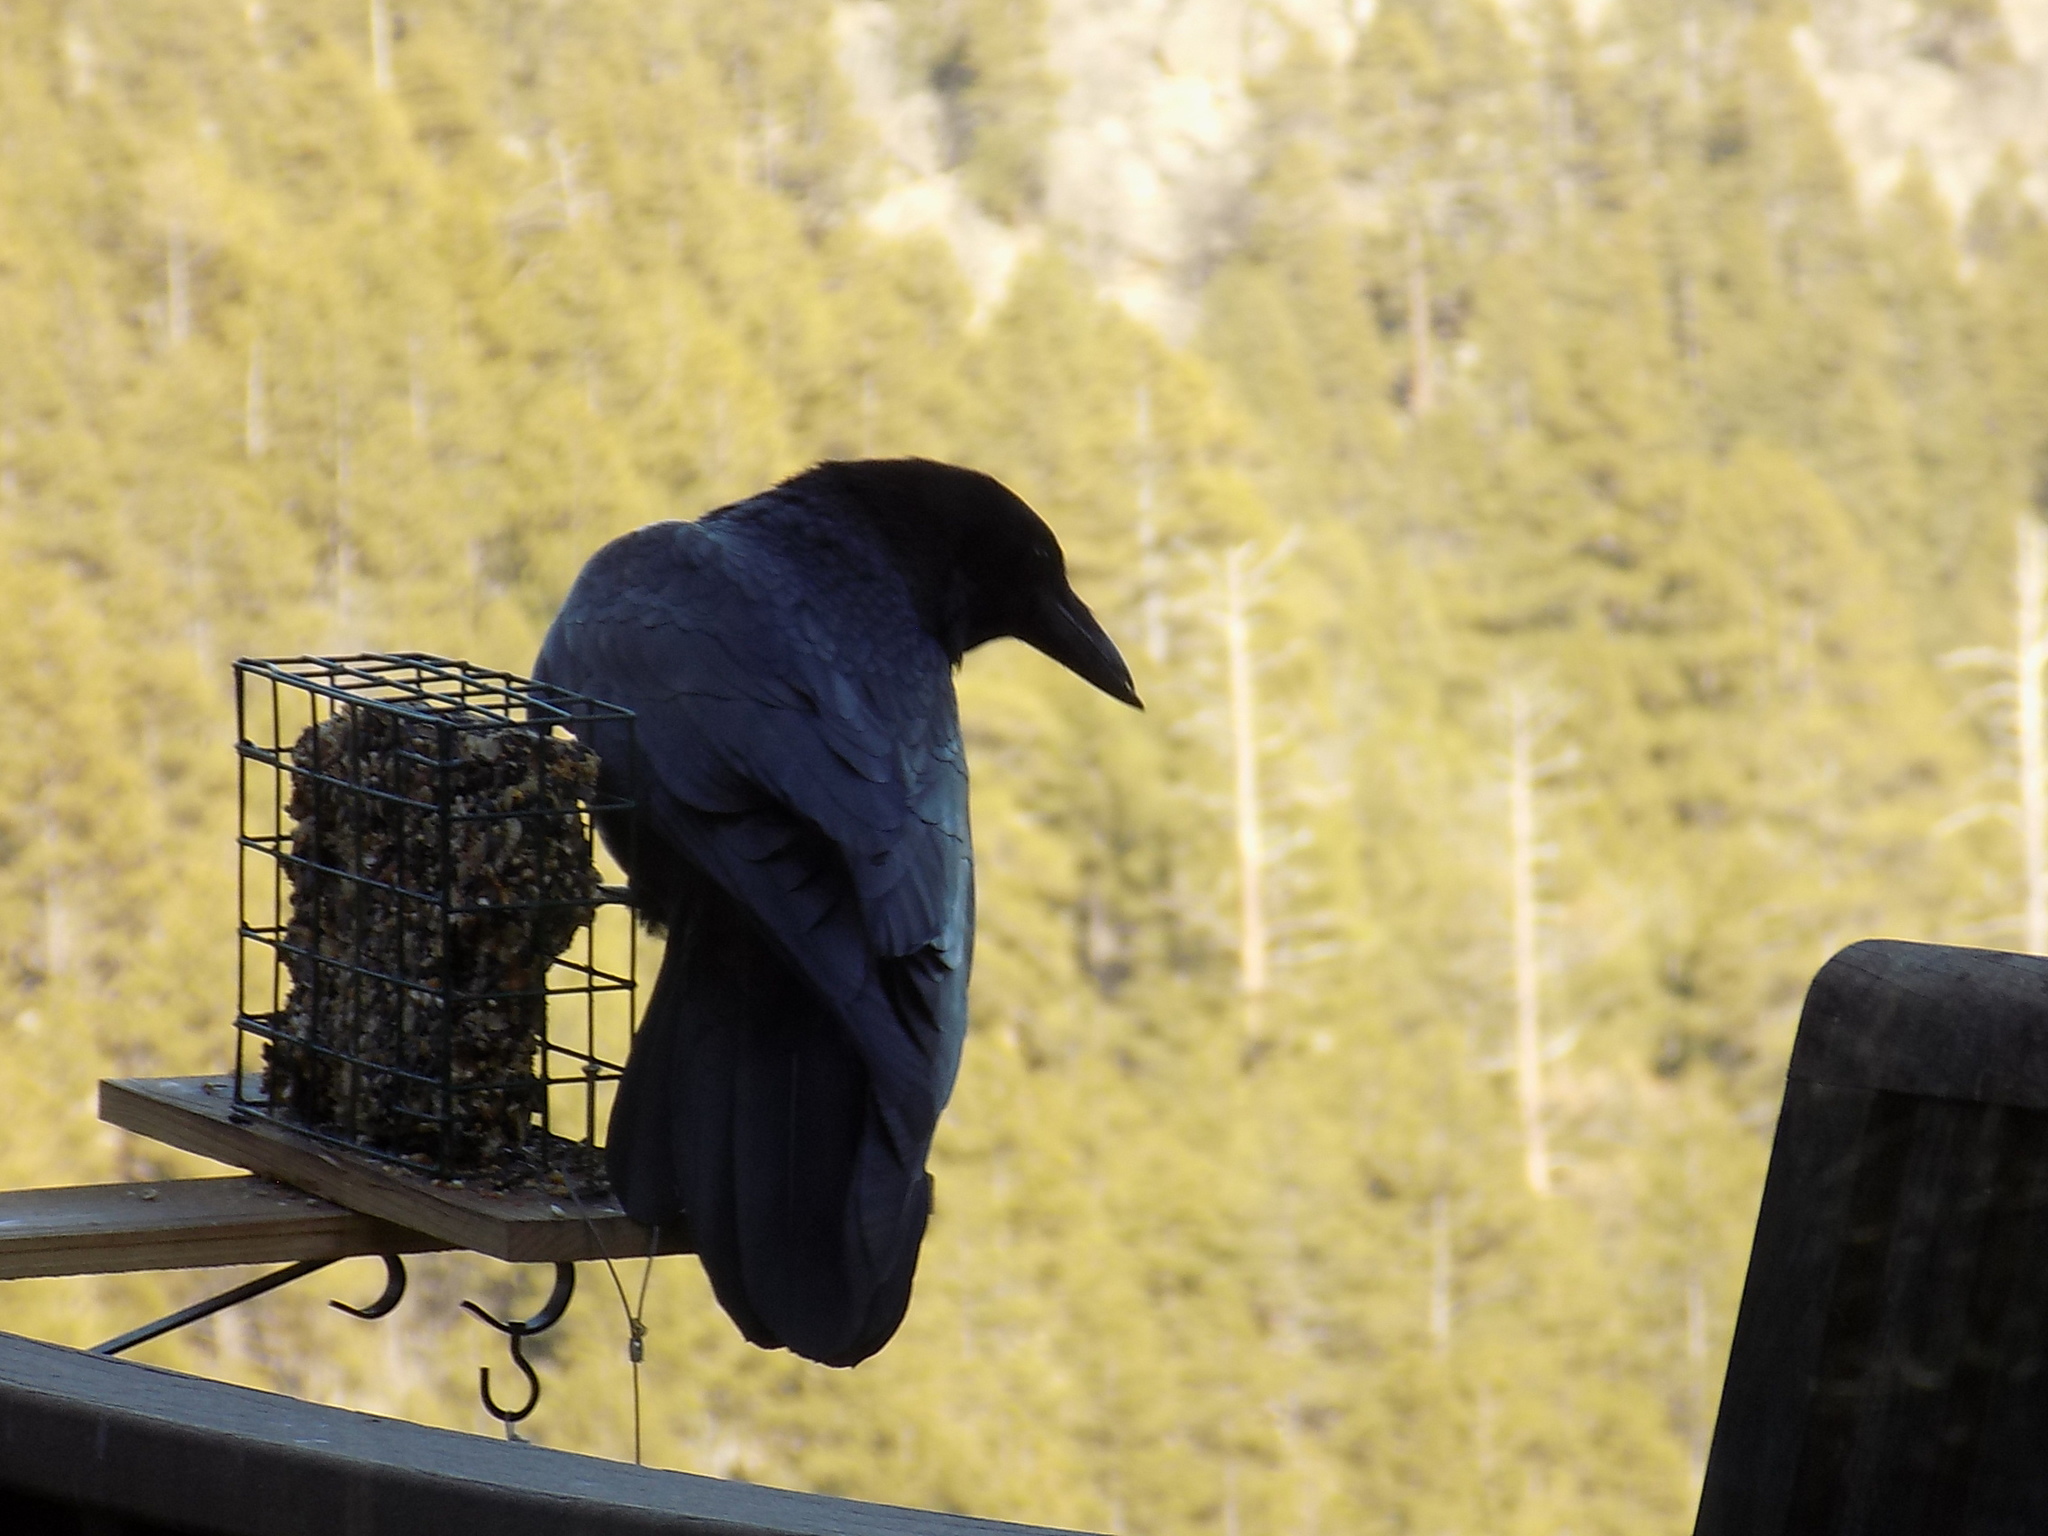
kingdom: Animalia
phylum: Chordata
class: Aves
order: Passeriformes
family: Corvidae
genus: Corvus
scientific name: Corvus brachyrhynchos
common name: American crow
